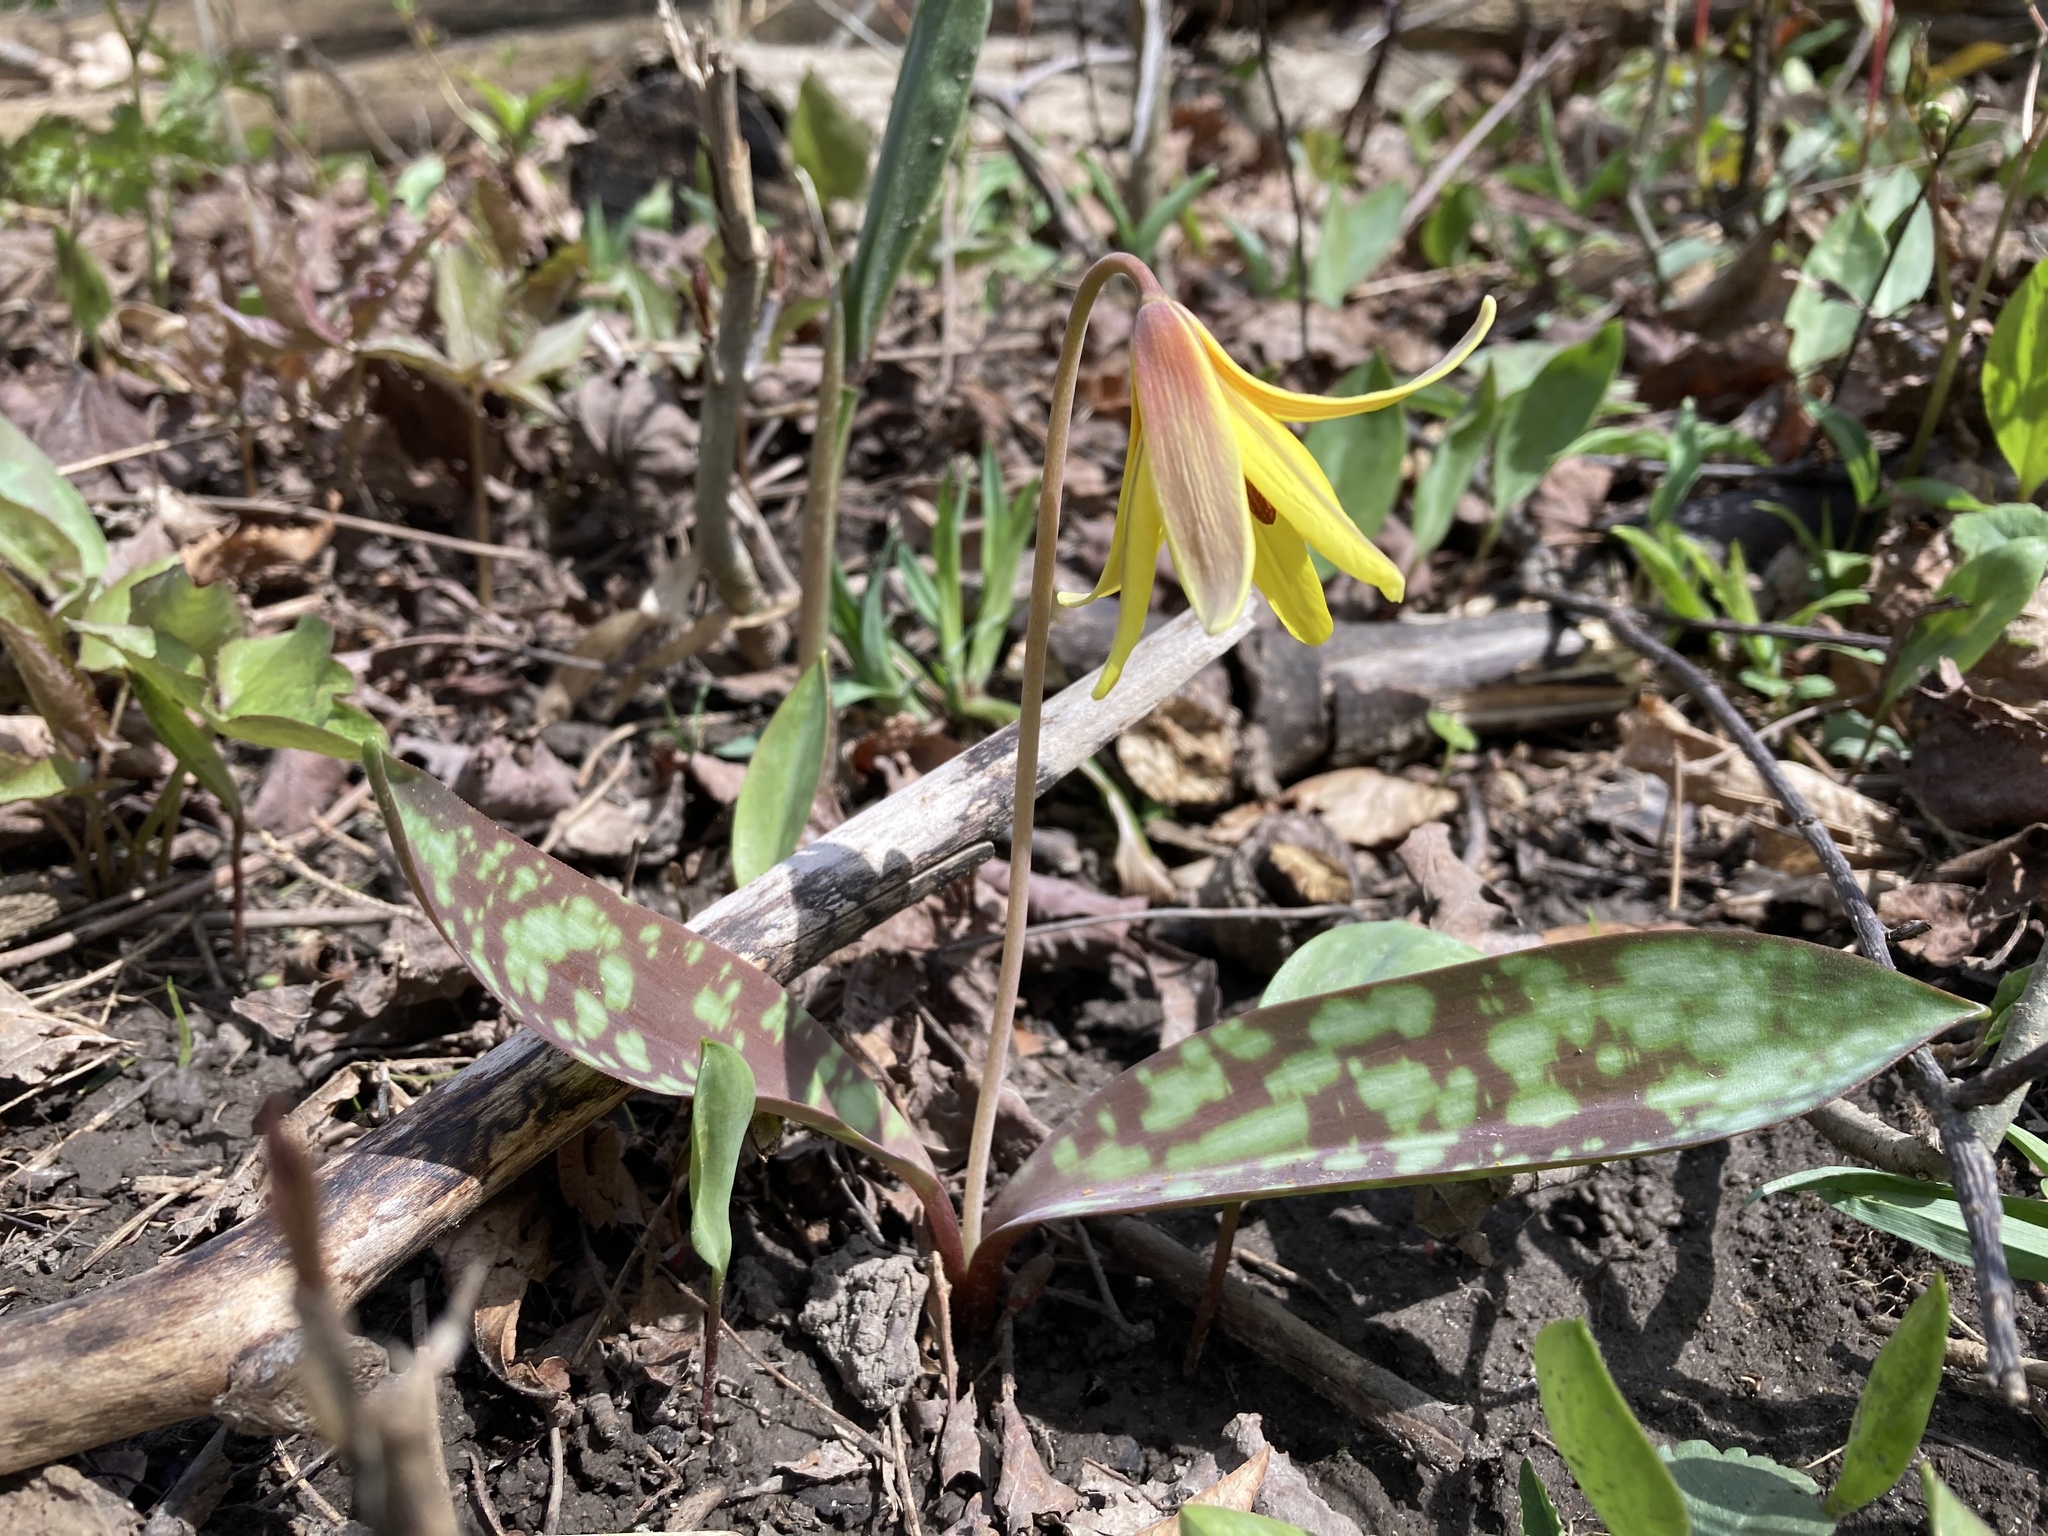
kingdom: Plantae
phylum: Tracheophyta
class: Liliopsida
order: Liliales
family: Liliaceae
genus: Erythronium
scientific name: Erythronium americanum
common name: Yellow adder's-tongue
